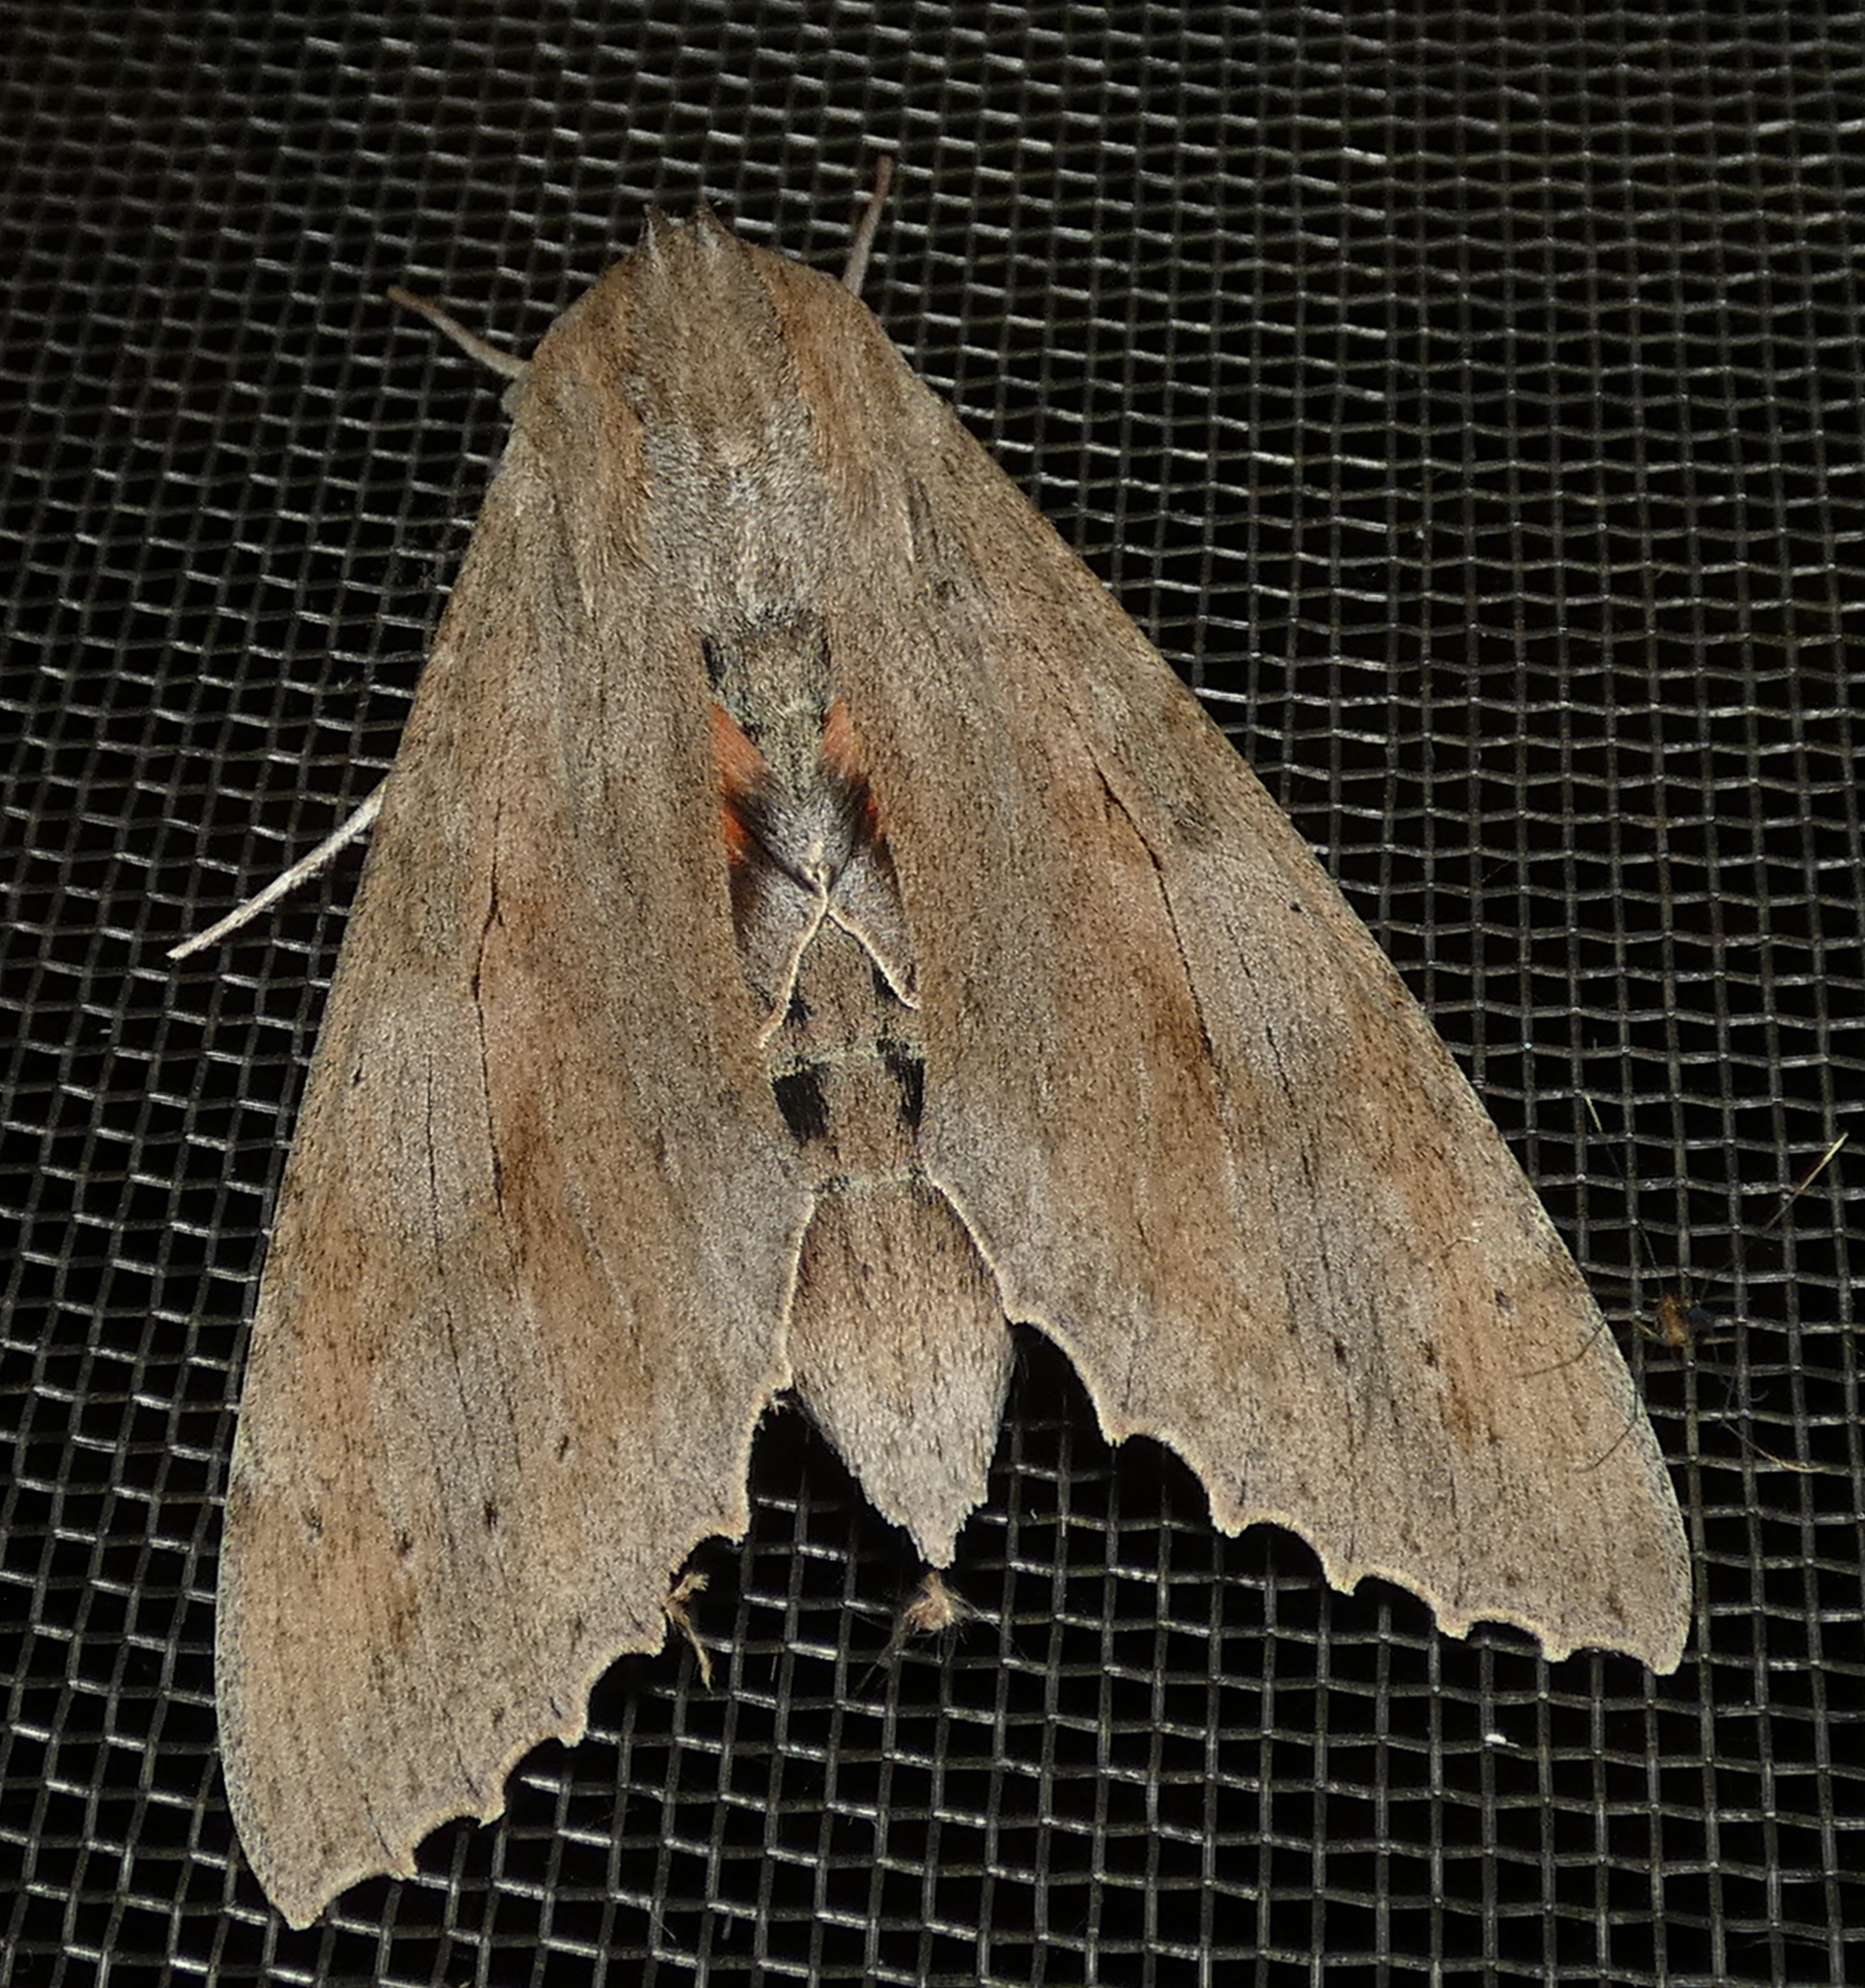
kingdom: Animalia
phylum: Arthropoda
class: Insecta
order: Lepidoptera
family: Sphingidae
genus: Erinnyis
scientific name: Erinnyis ello
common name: Ello sphinx
